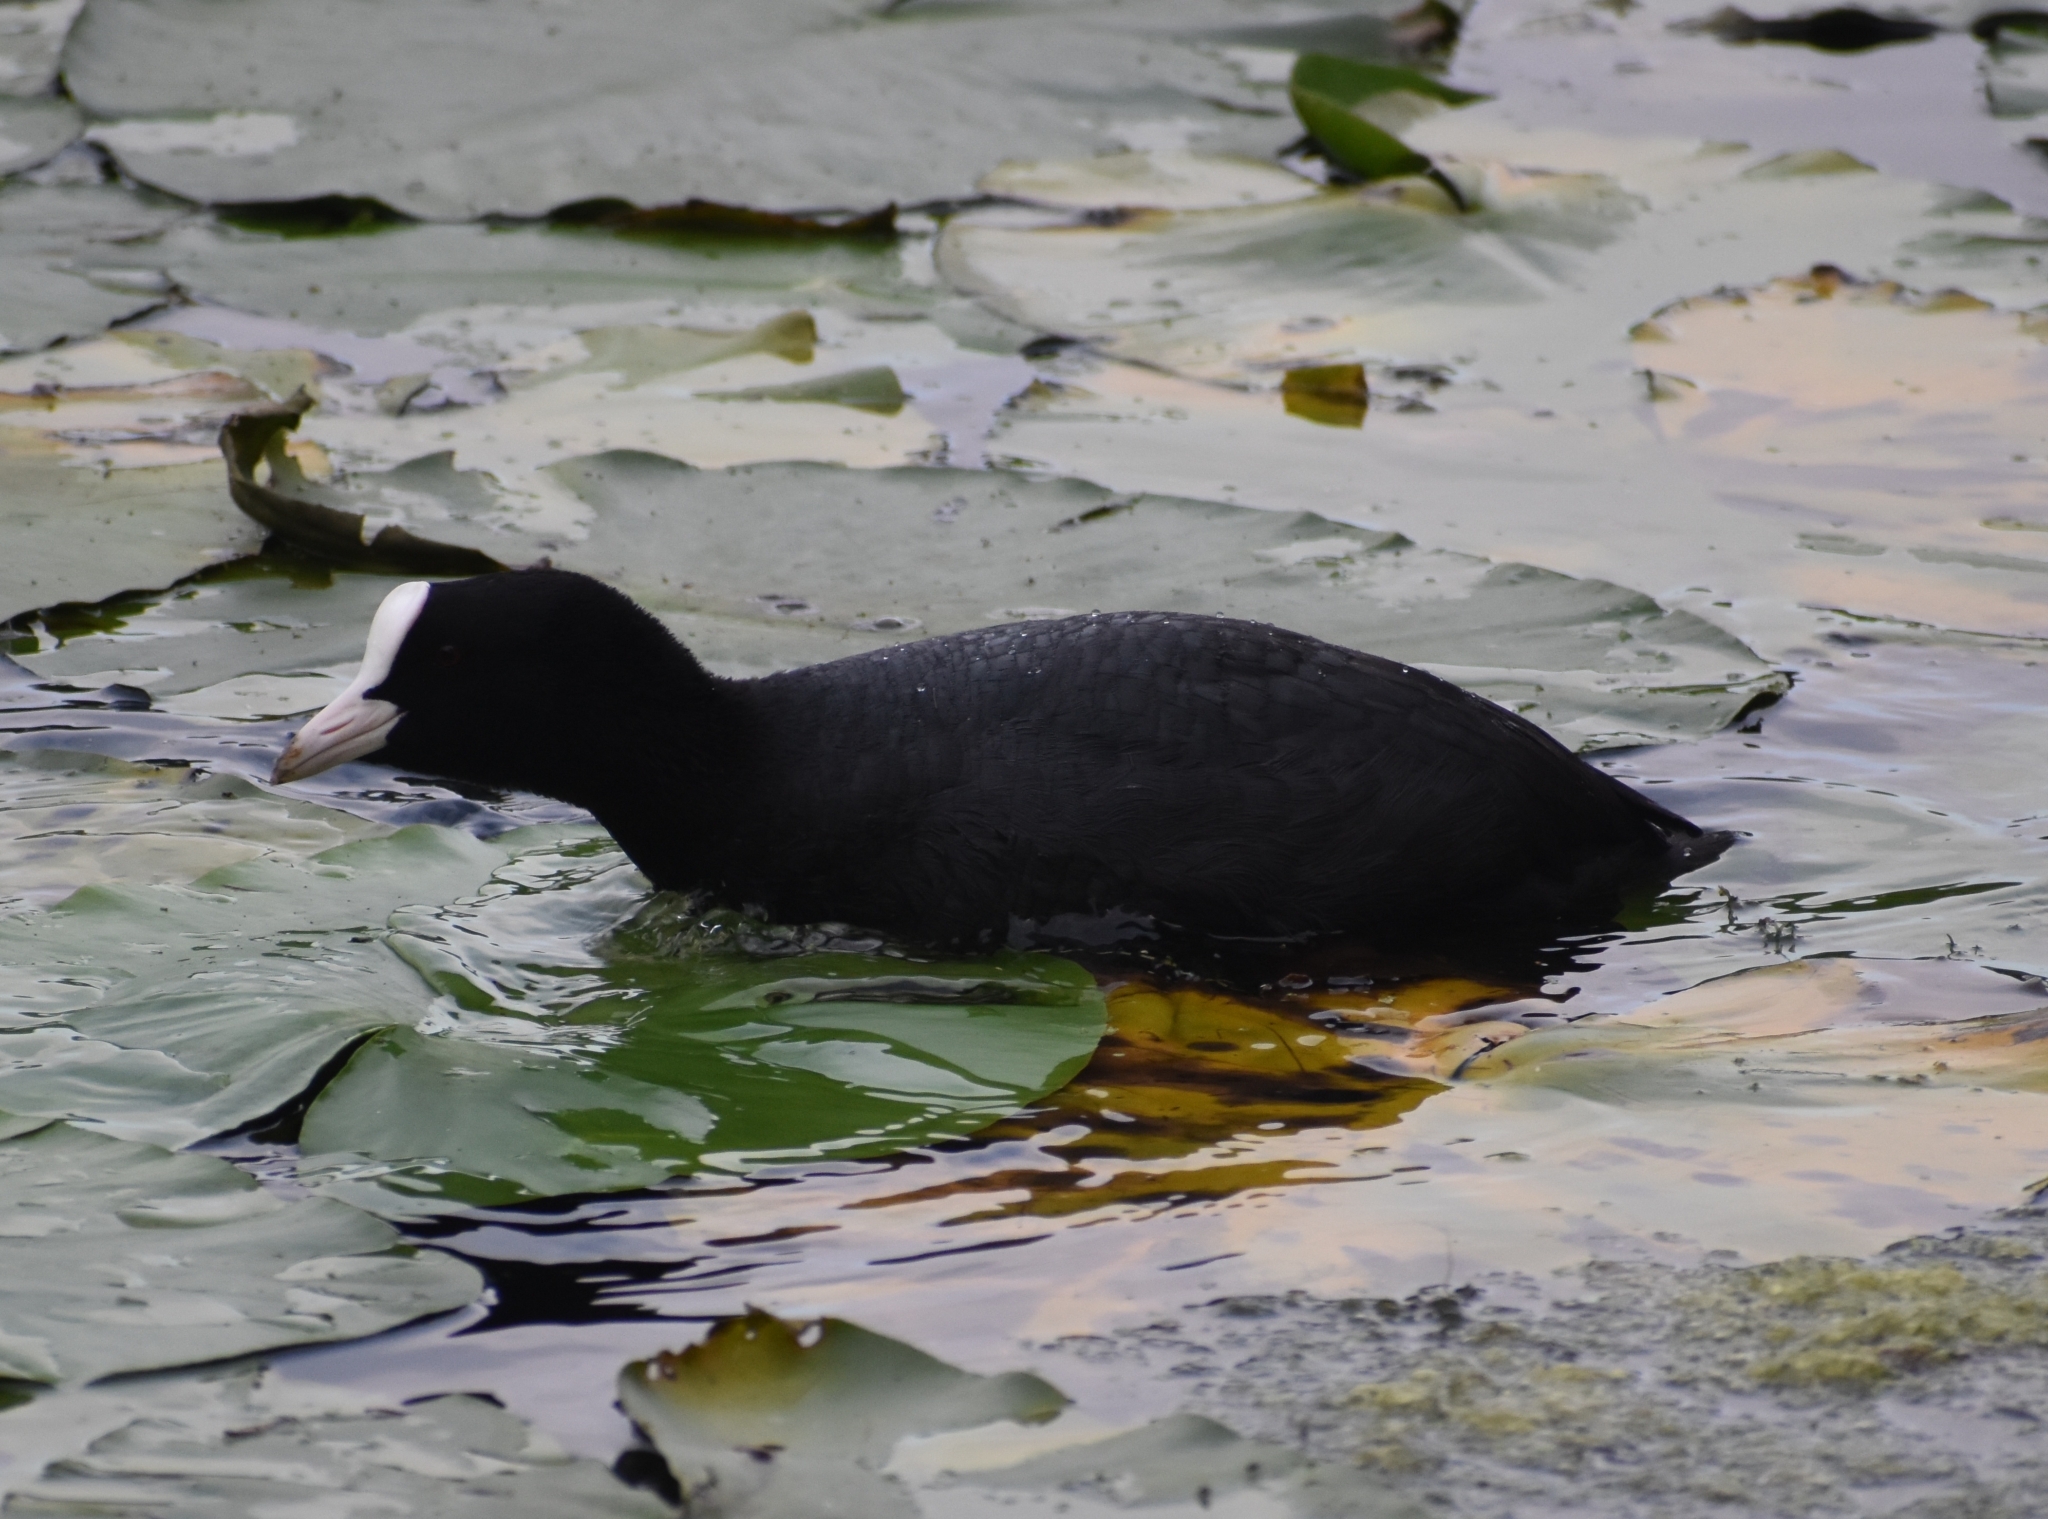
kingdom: Animalia
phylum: Chordata
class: Aves
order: Gruiformes
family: Rallidae
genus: Fulica
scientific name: Fulica atra
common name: Eurasian coot
